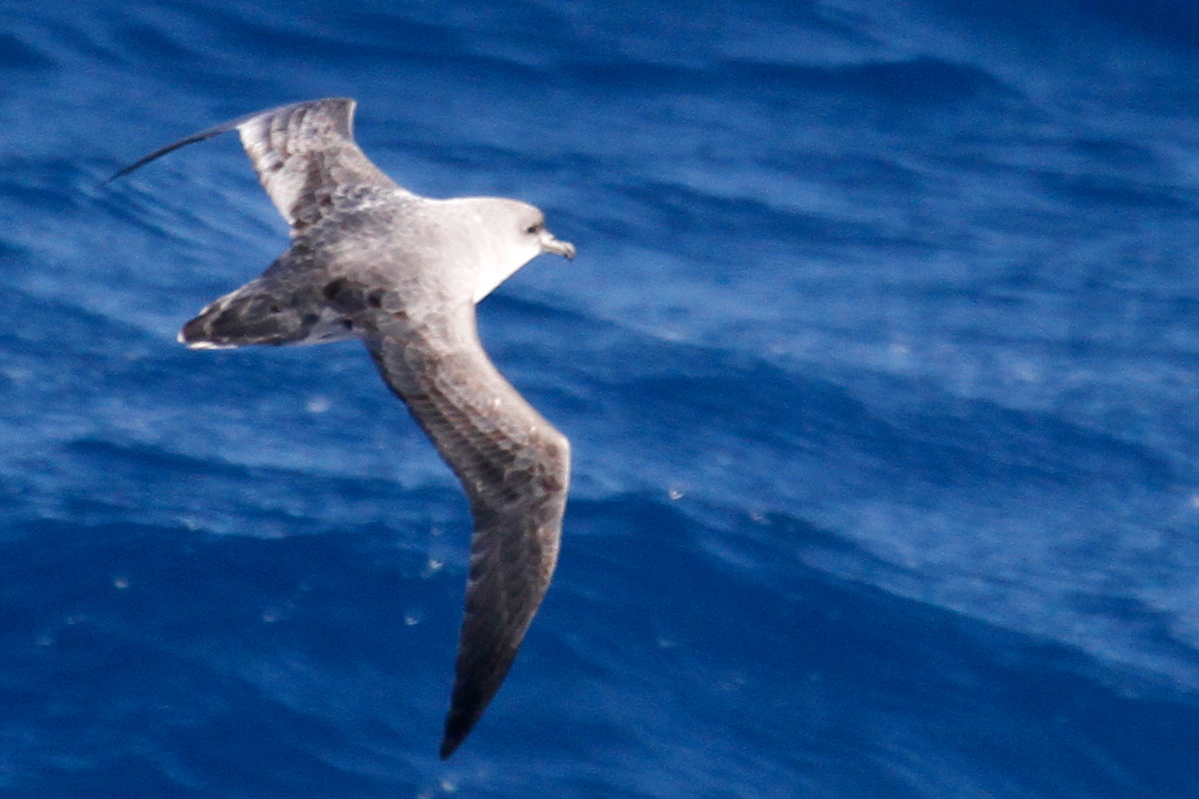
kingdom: Animalia
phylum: Chordata
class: Aves
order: Procellariiformes
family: Procellariidae
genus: Procellaria
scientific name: Procellaria cinerea
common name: Grey petrel
